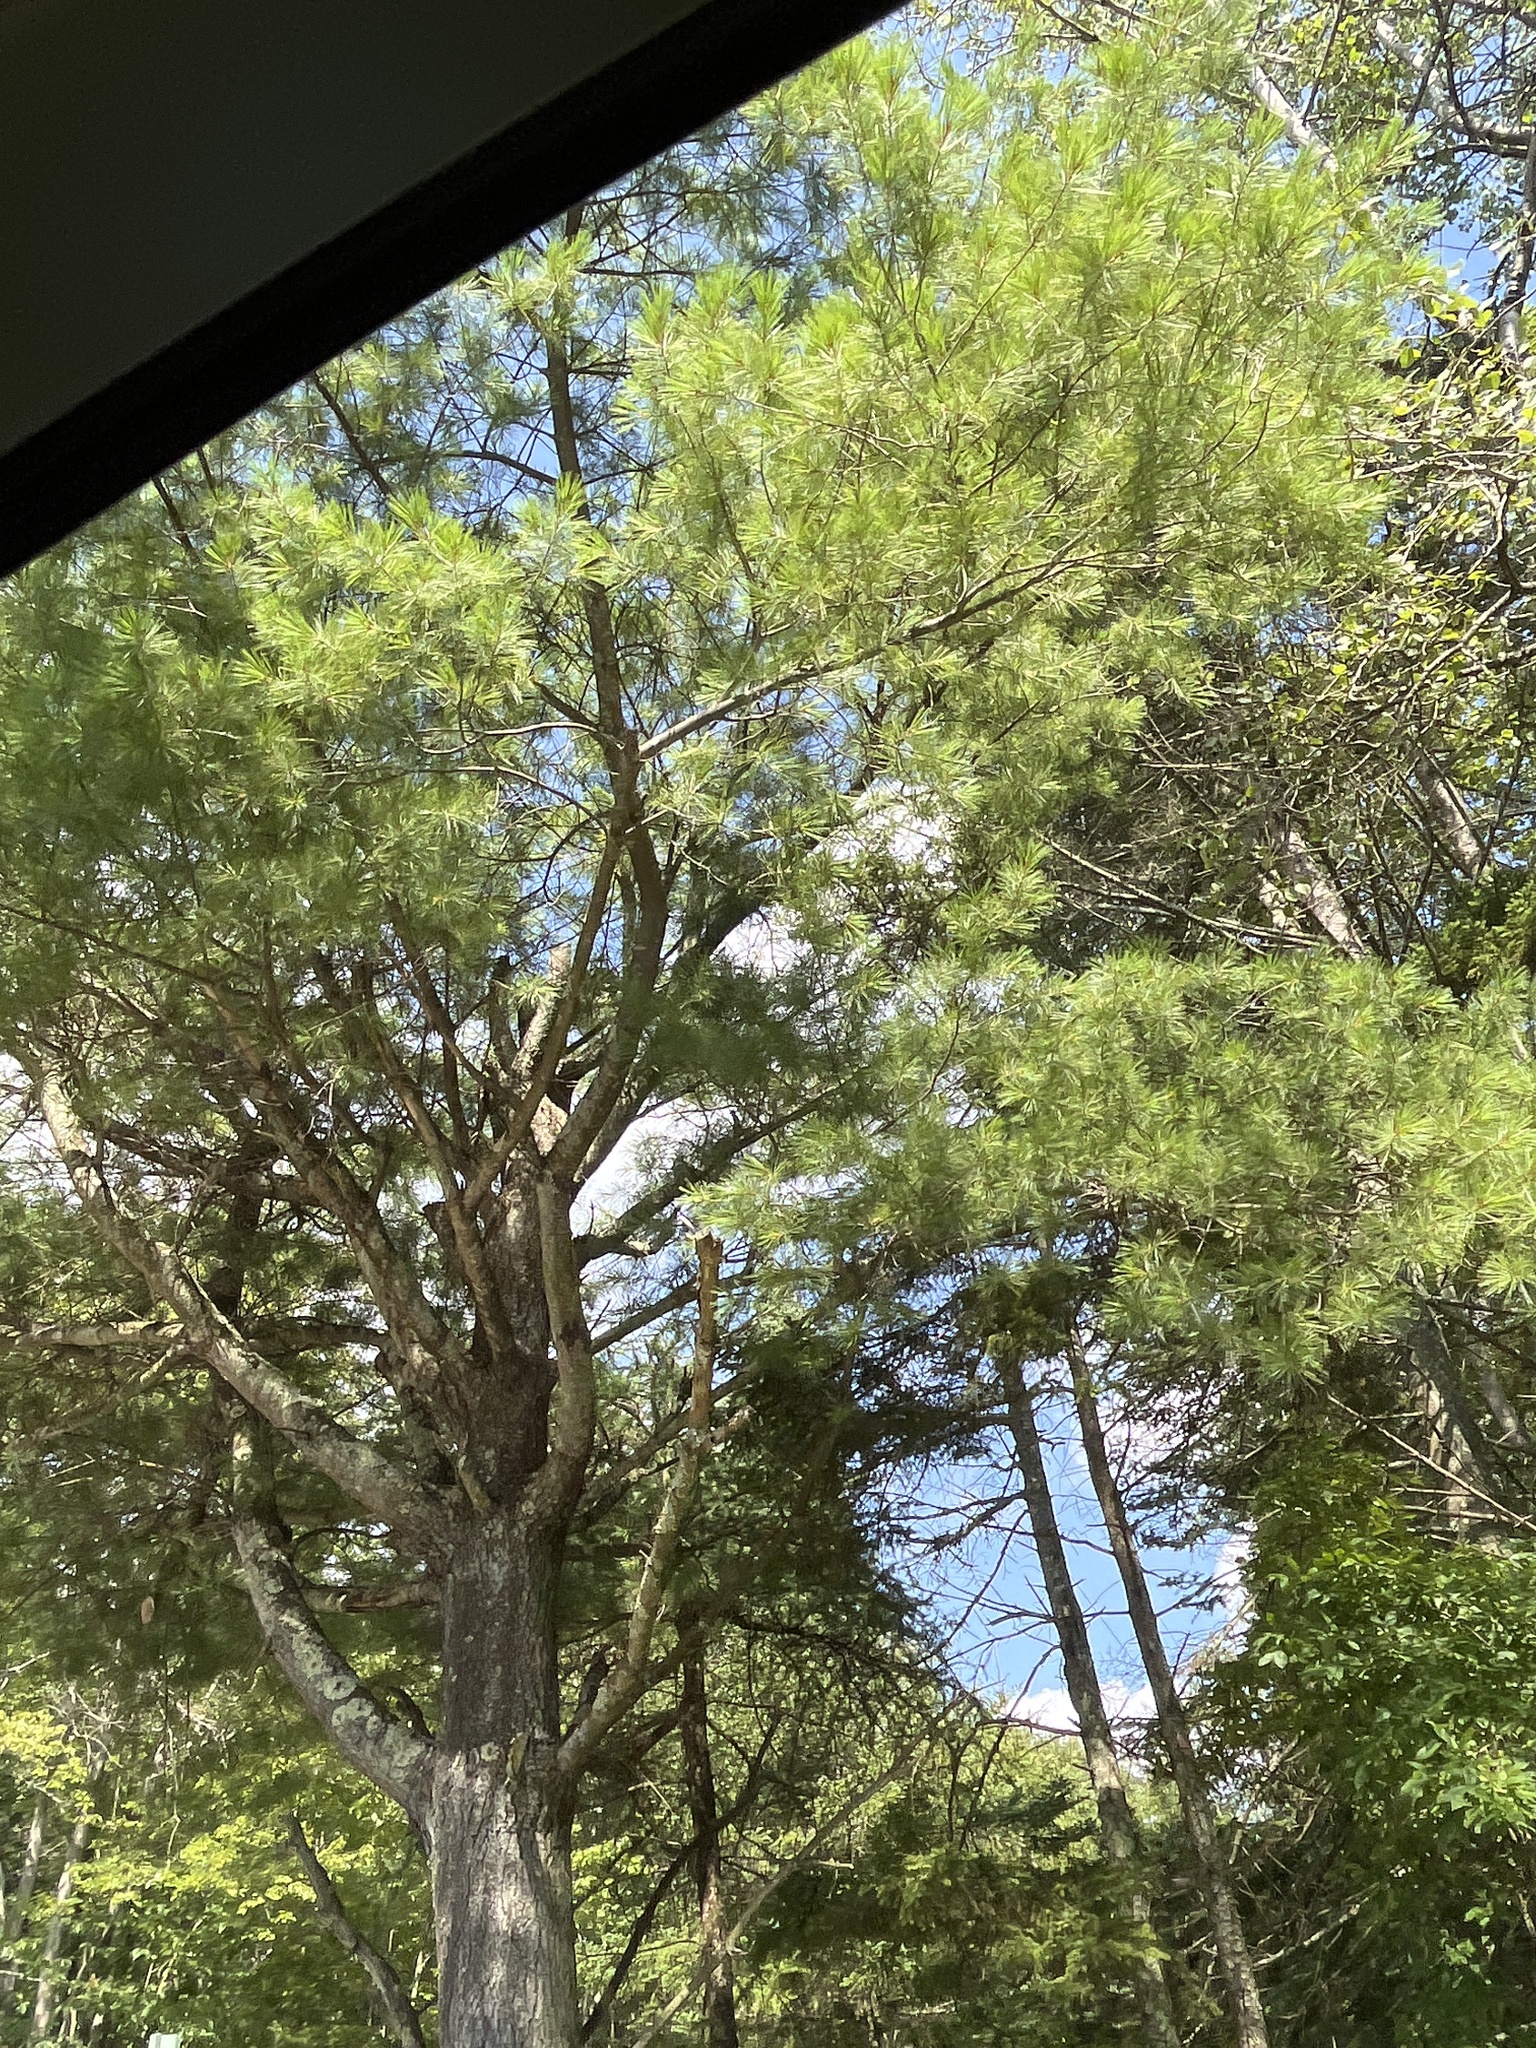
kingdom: Plantae
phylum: Tracheophyta
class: Pinopsida
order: Pinales
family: Pinaceae
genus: Pinus
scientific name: Pinus strobus
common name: Weymouth pine
